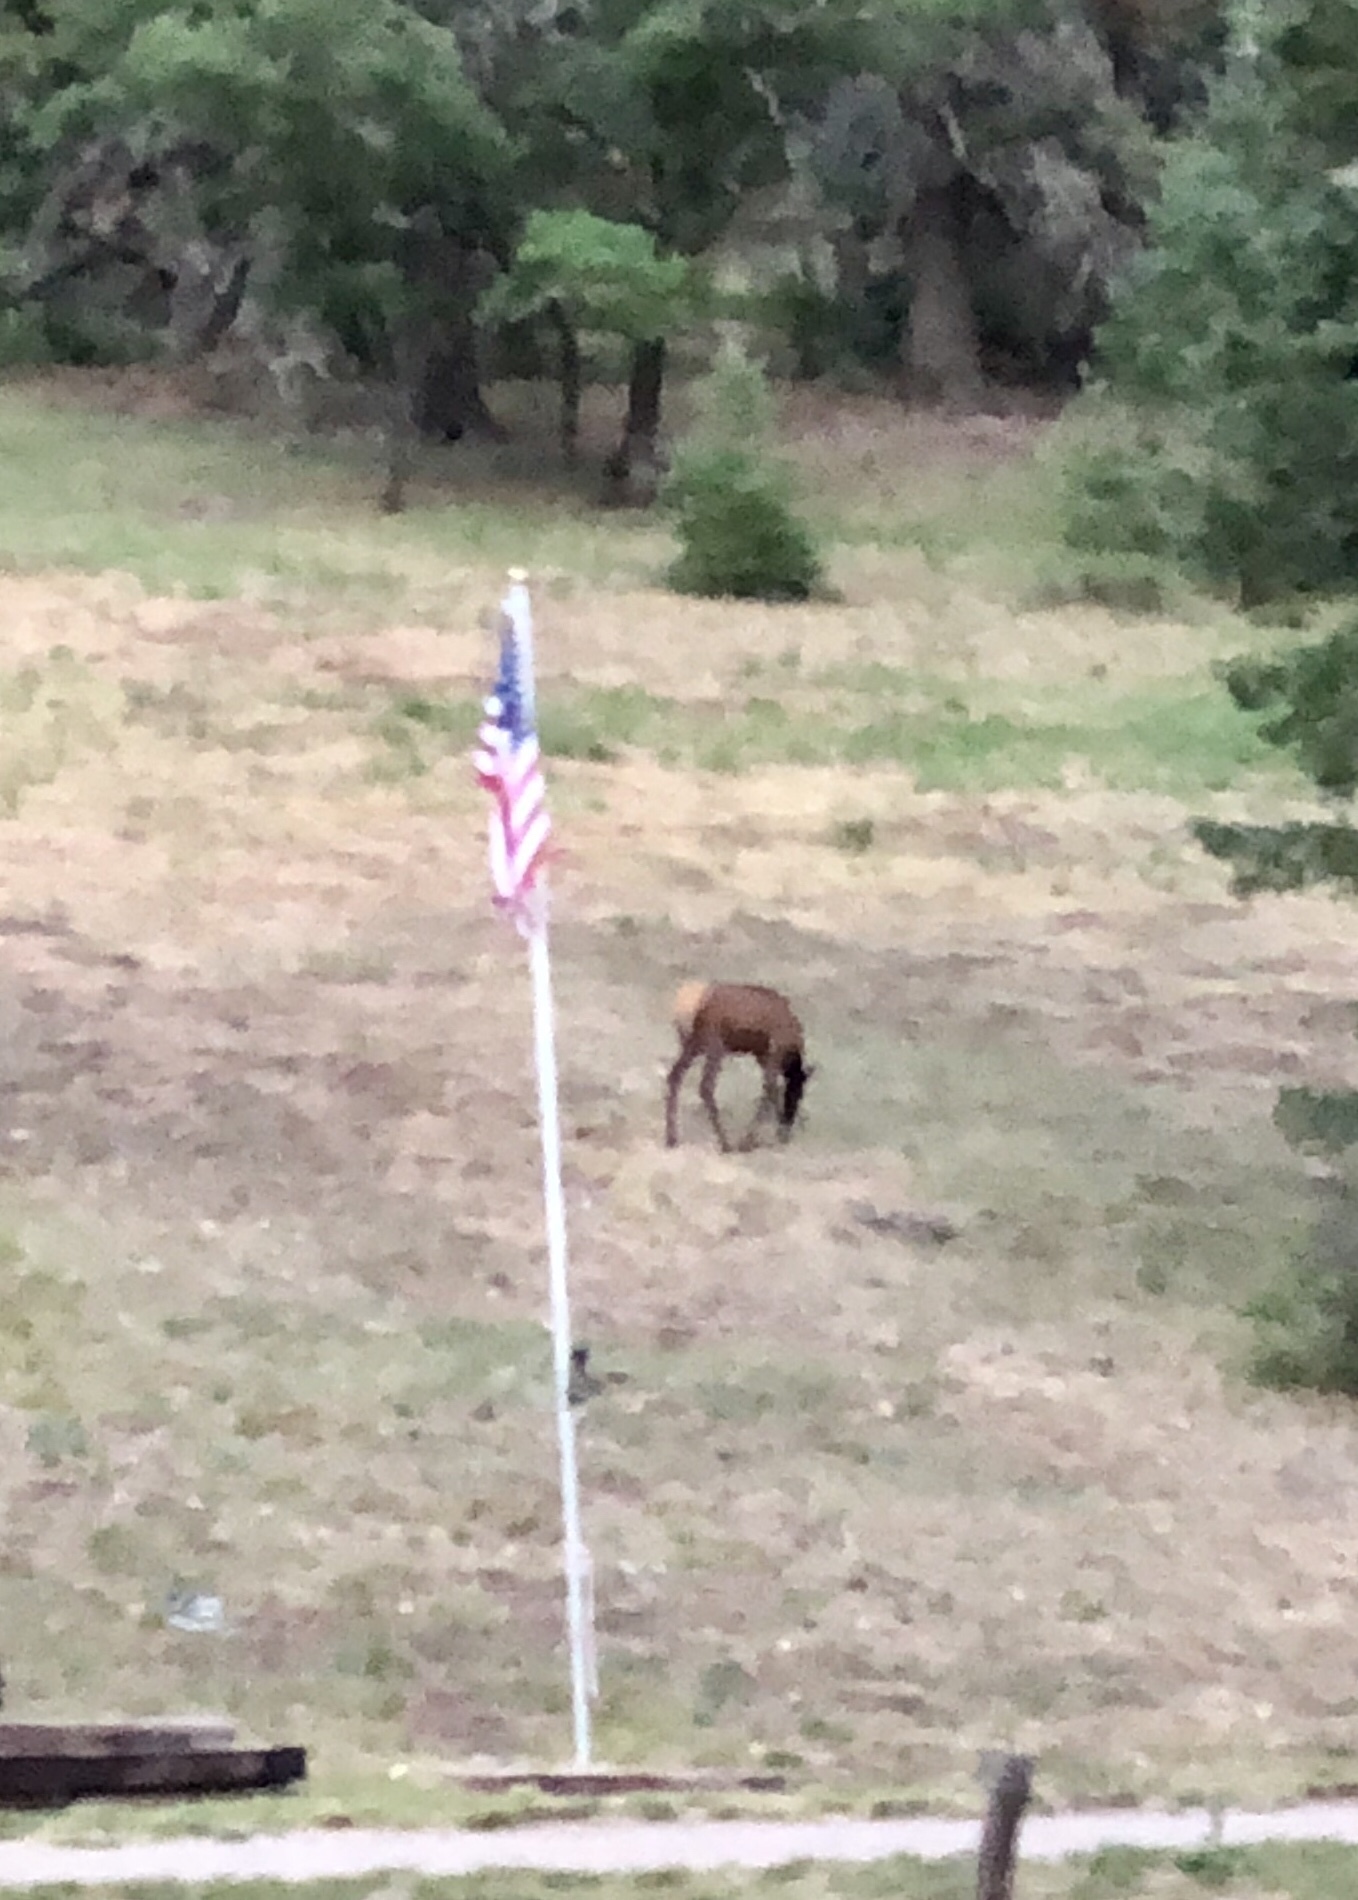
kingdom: Animalia
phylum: Chordata
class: Mammalia
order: Artiodactyla
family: Cervidae
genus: Cervus
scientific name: Cervus elaphus
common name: Red deer
